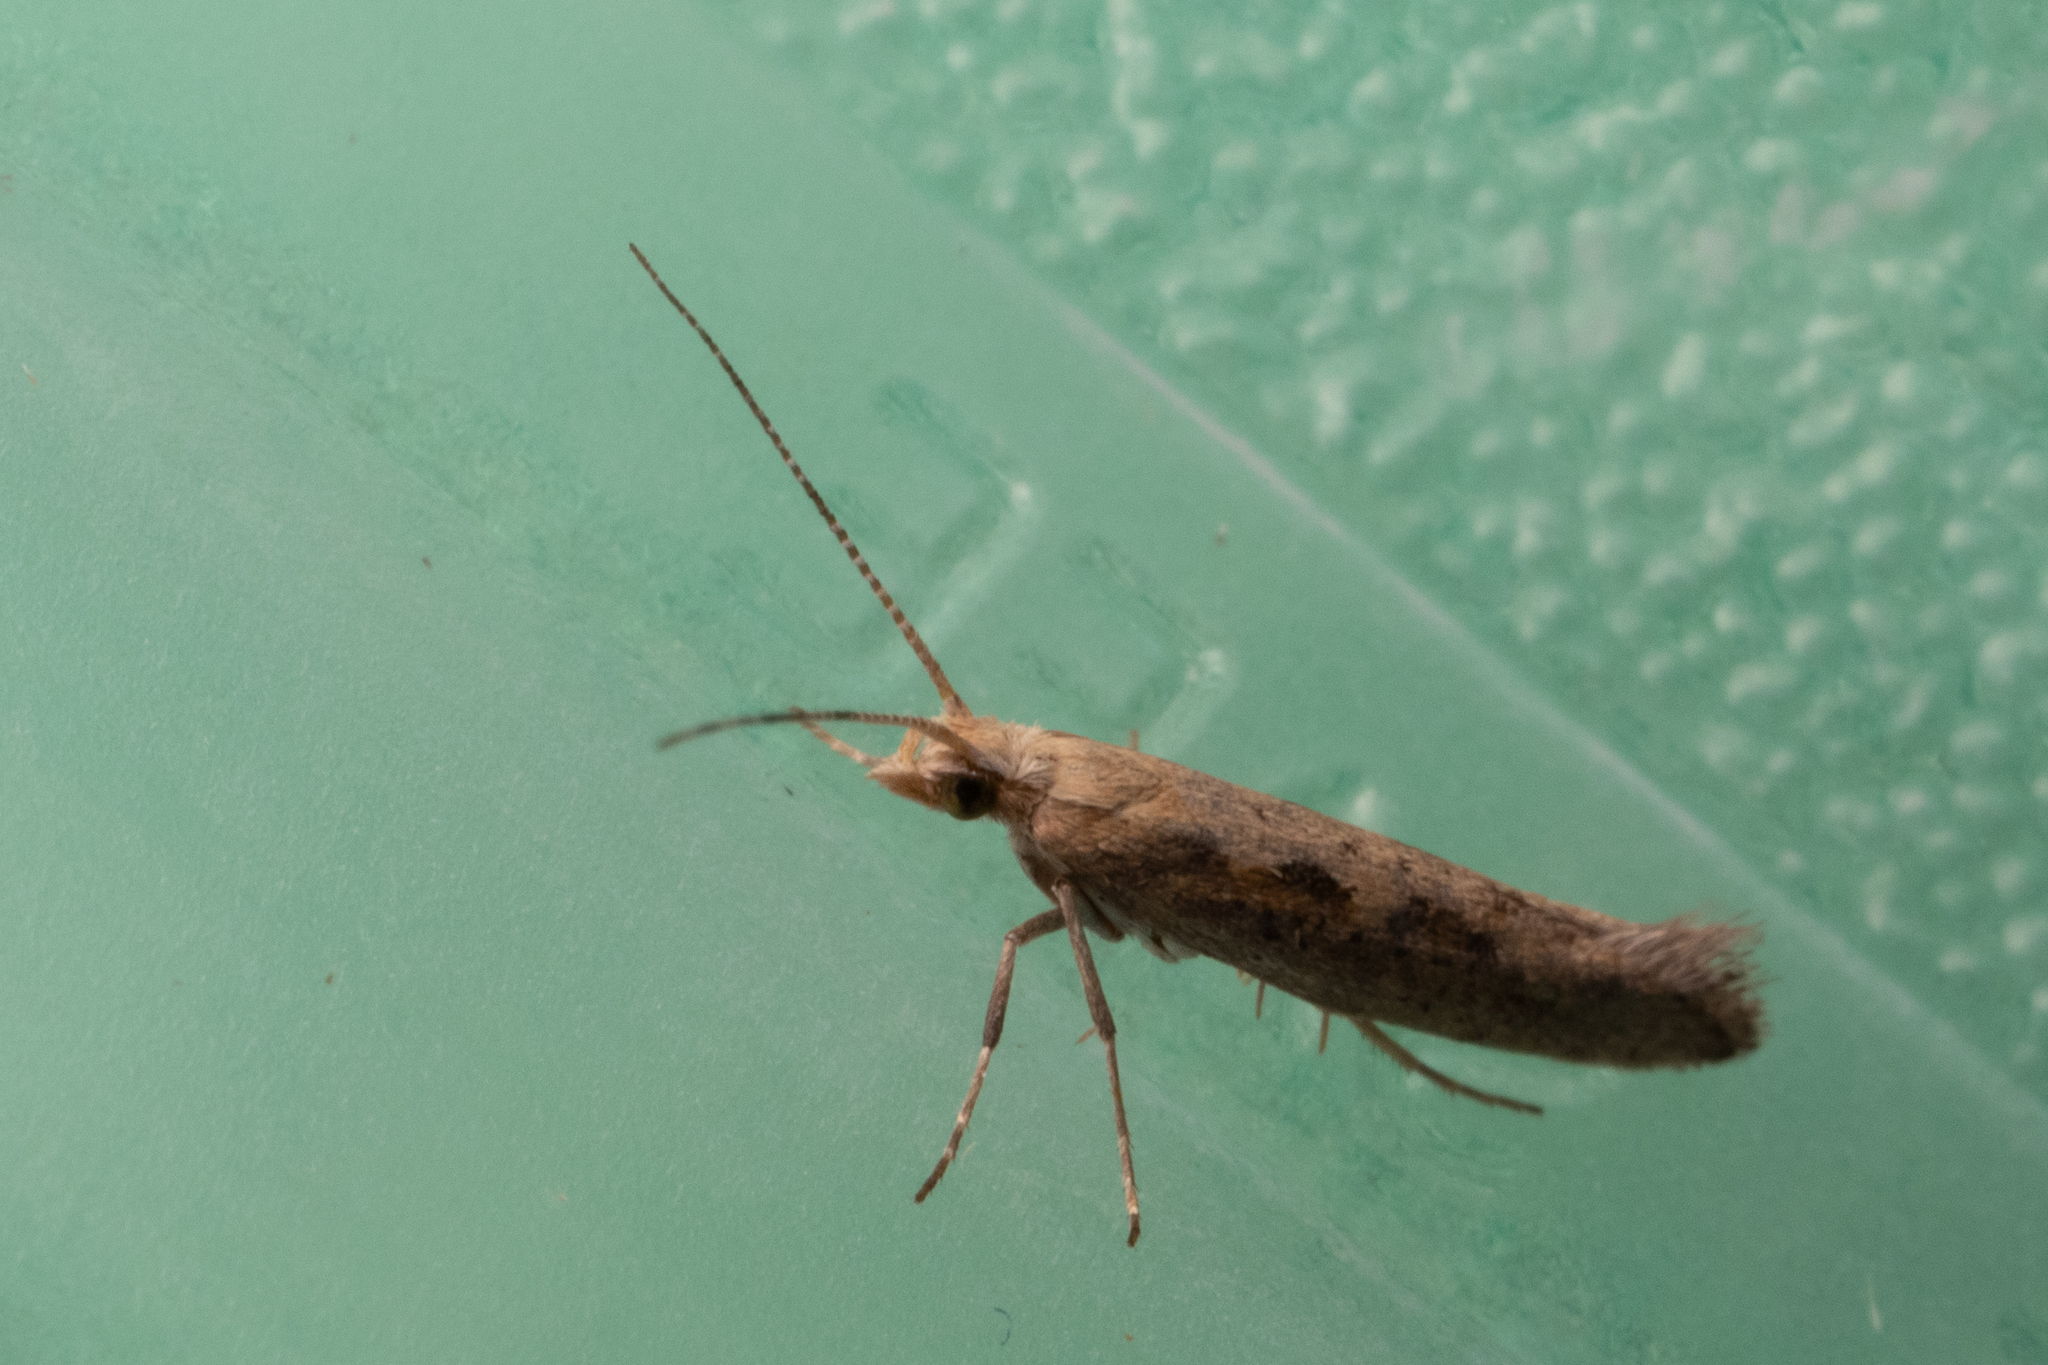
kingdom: Animalia
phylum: Arthropoda
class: Insecta
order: Lepidoptera
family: Plutellidae
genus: Plutella
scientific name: Plutella xylostella
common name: Diamond-back moth
